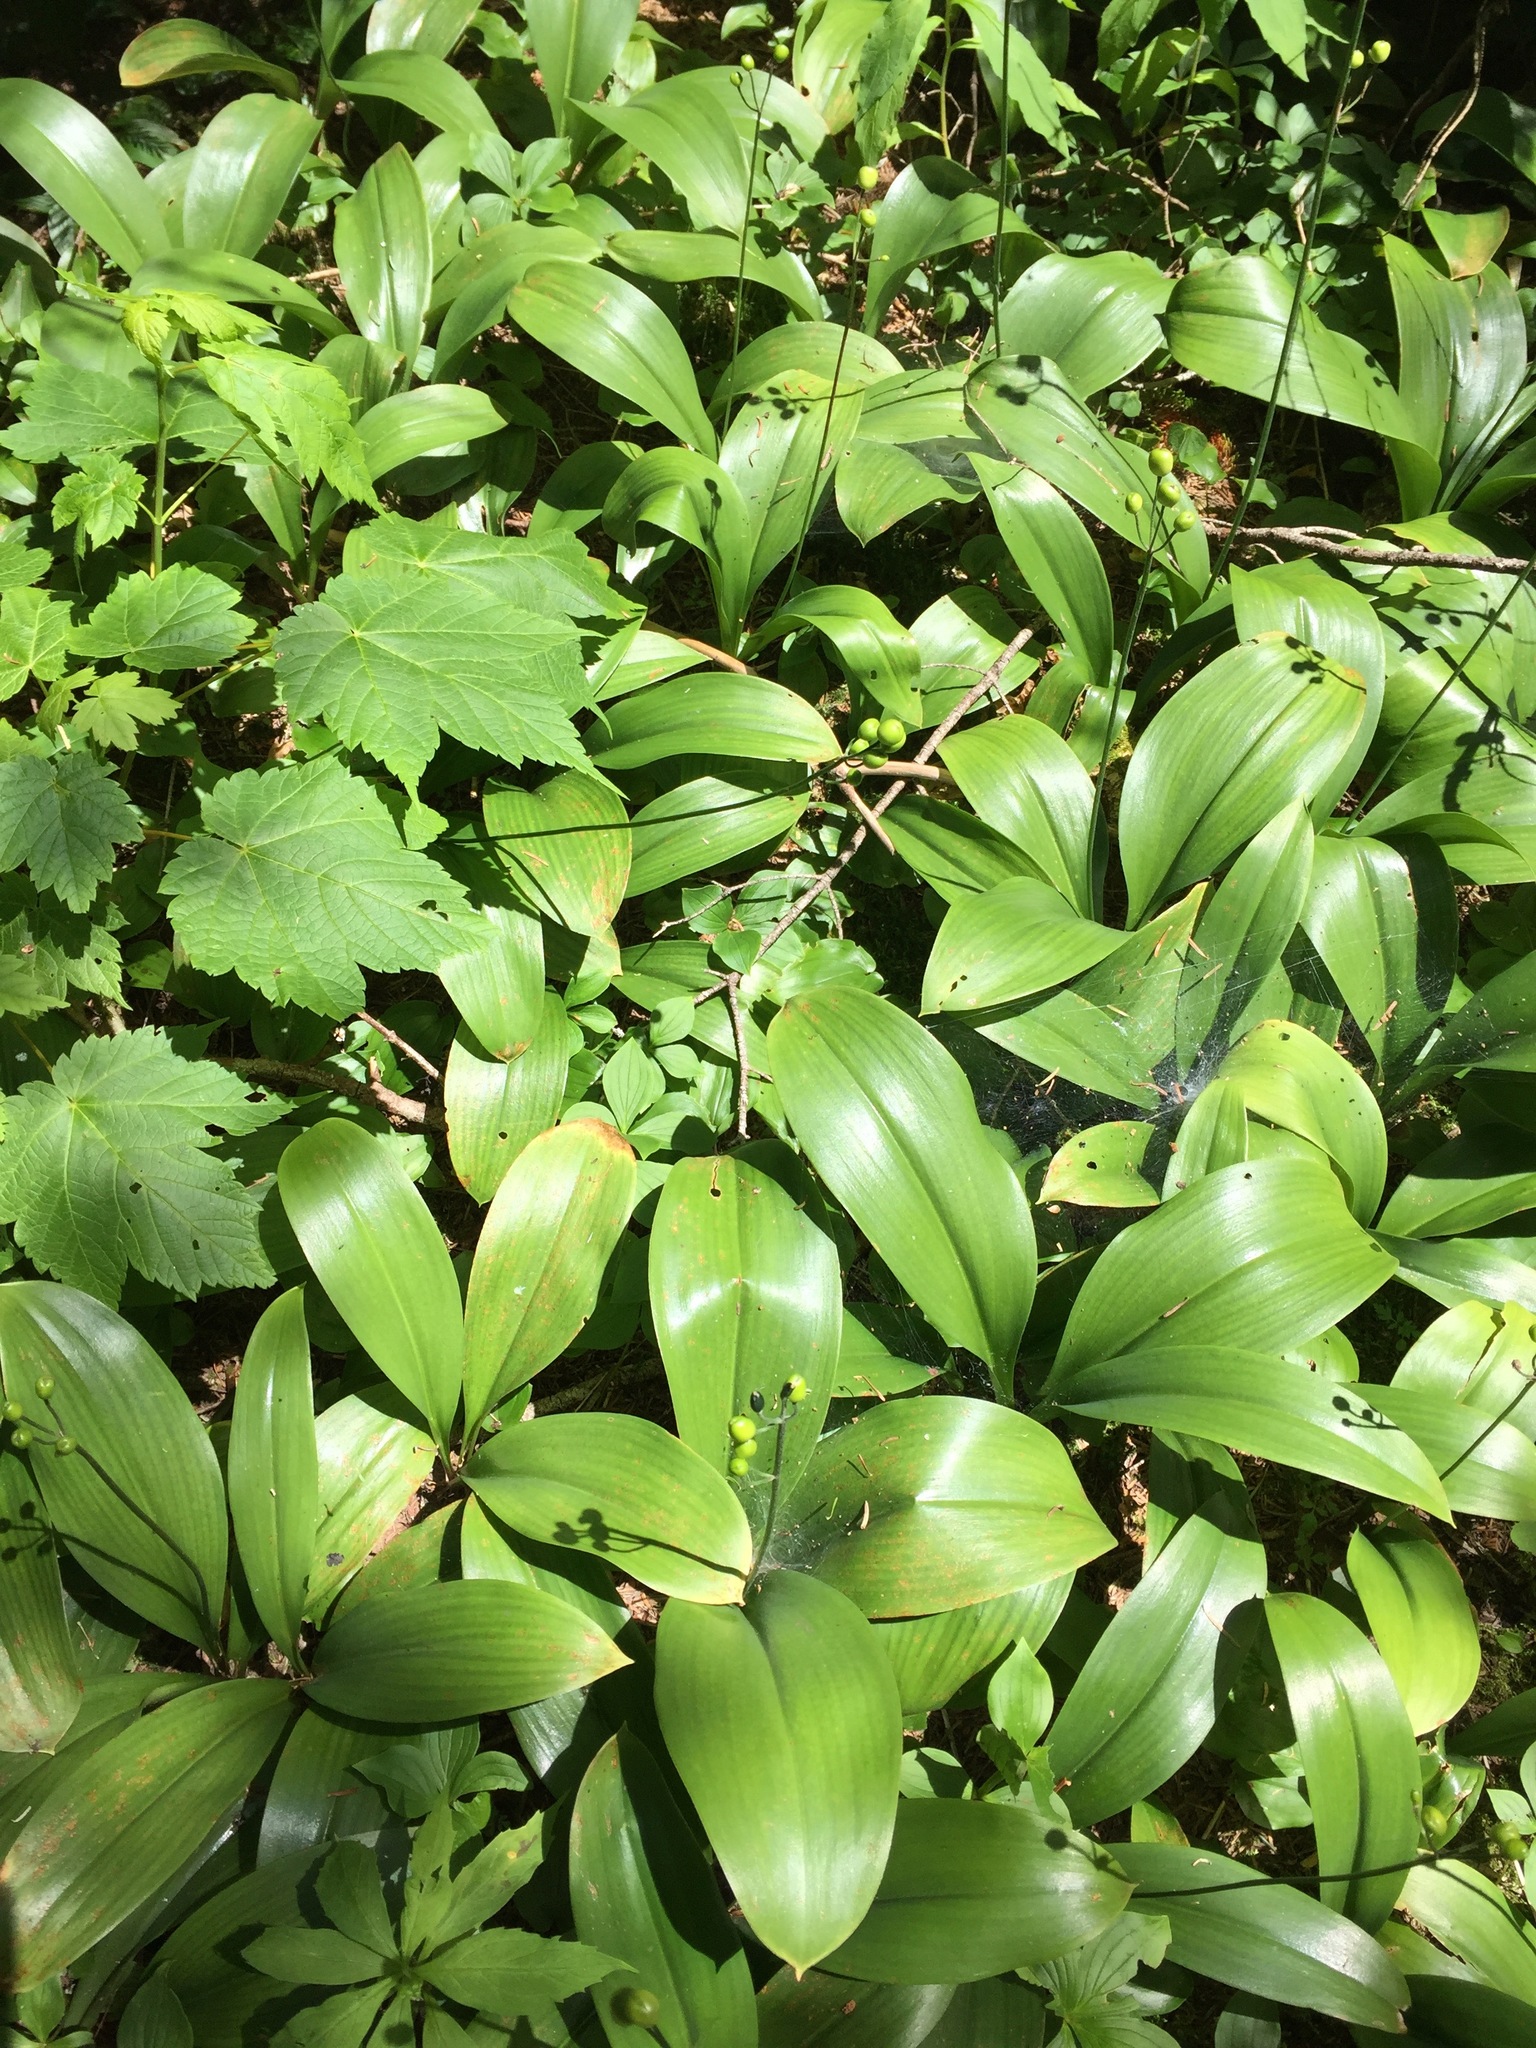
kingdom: Plantae
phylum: Tracheophyta
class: Liliopsida
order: Liliales
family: Liliaceae
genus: Clintonia
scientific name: Clintonia borealis
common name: Yellow clintonia
